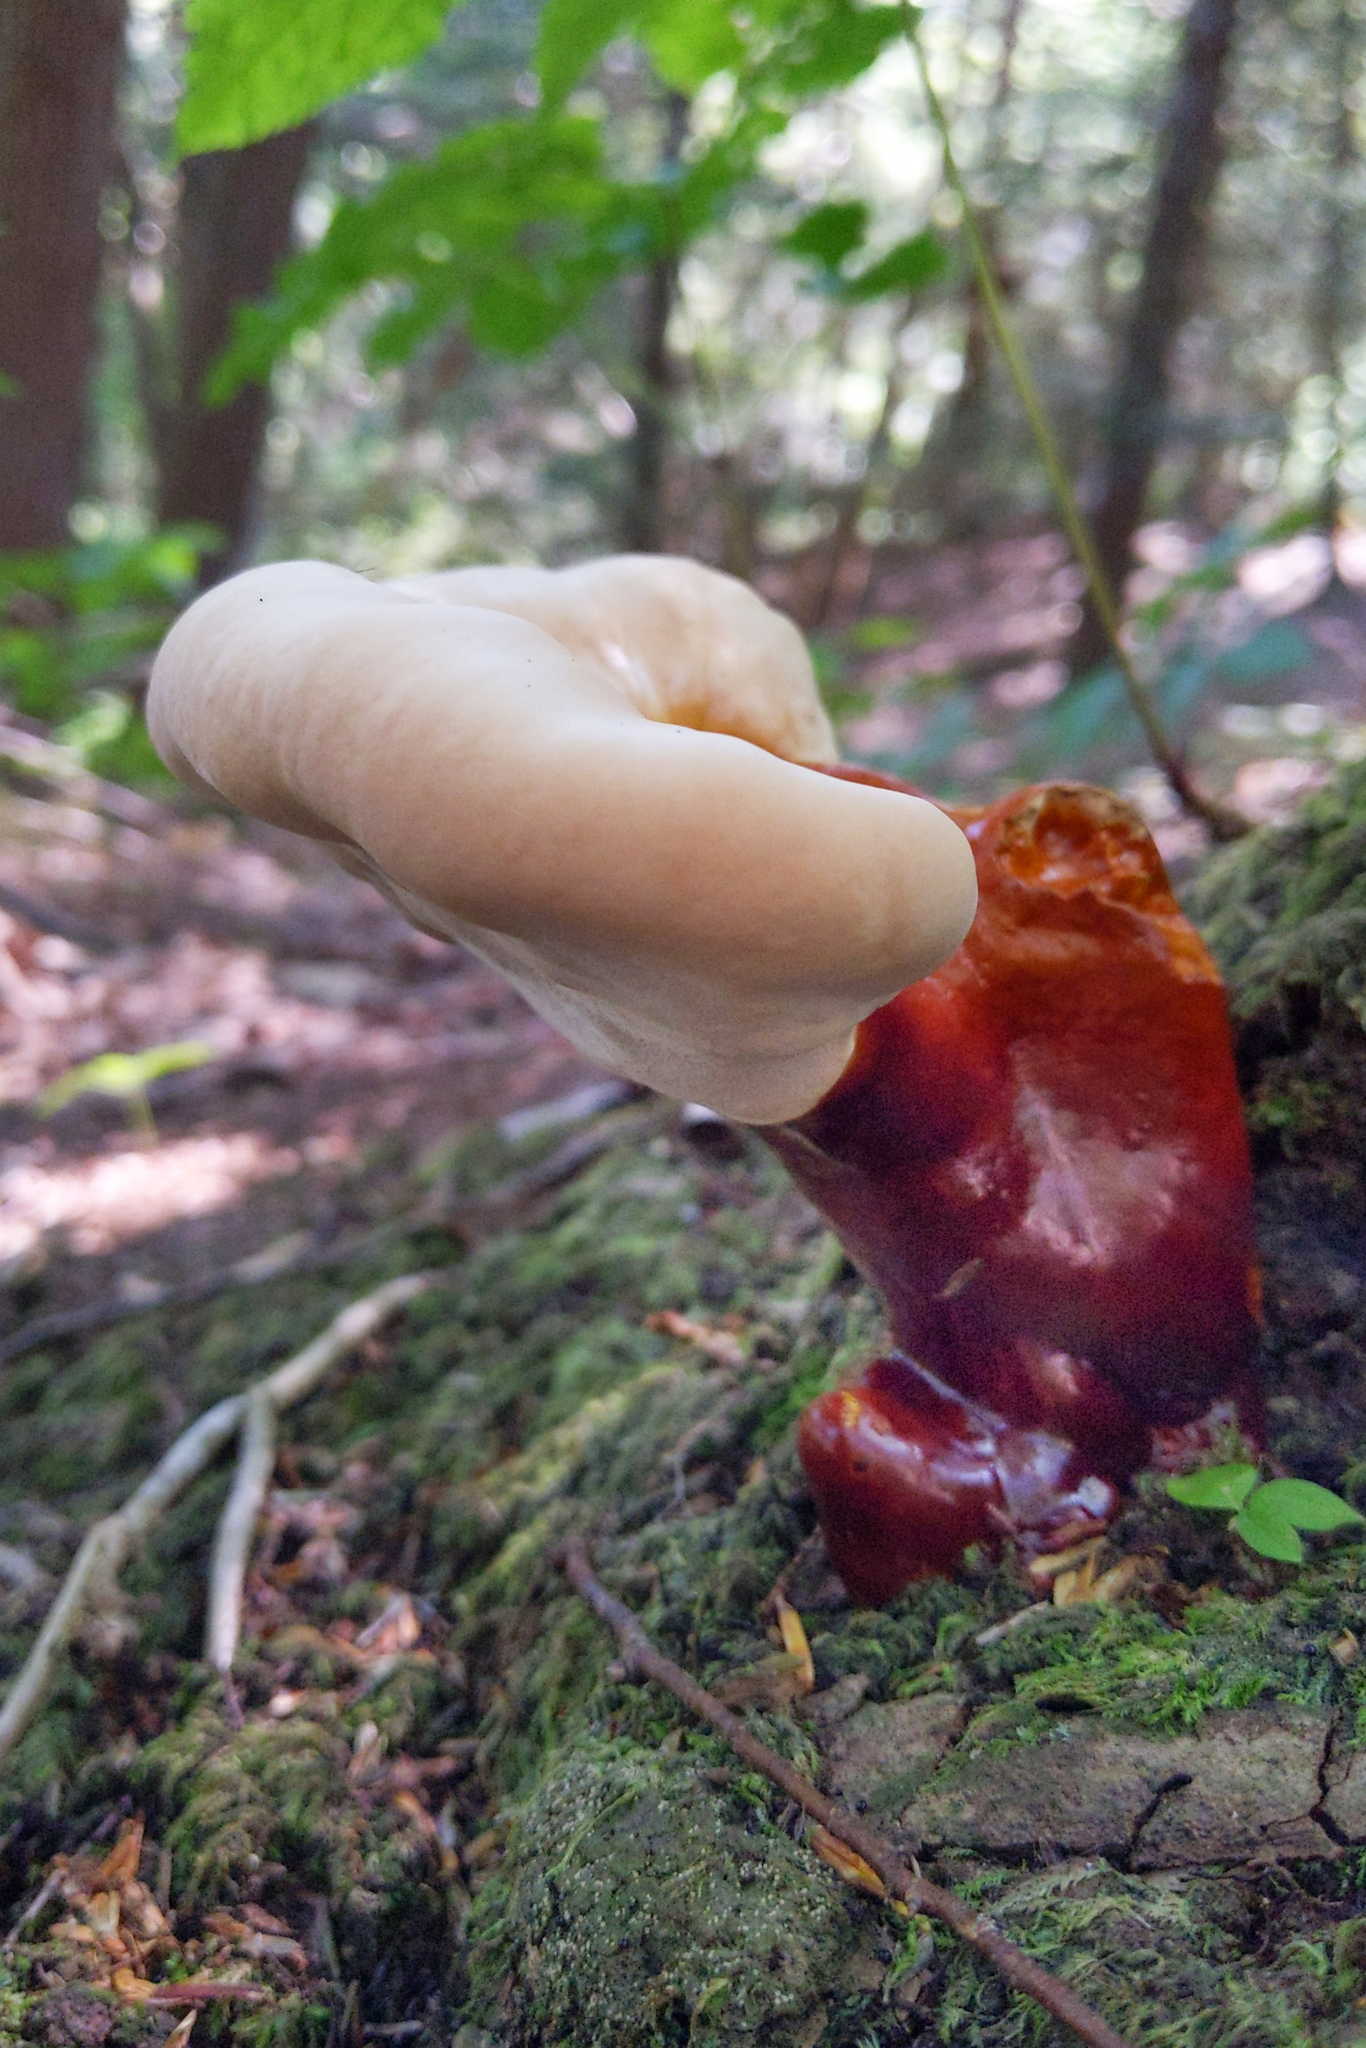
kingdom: Fungi
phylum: Basidiomycota
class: Agaricomycetes
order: Polyporales
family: Polyporaceae
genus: Ganoderma
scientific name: Ganoderma tsugae
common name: Hemlock varnish shelf
